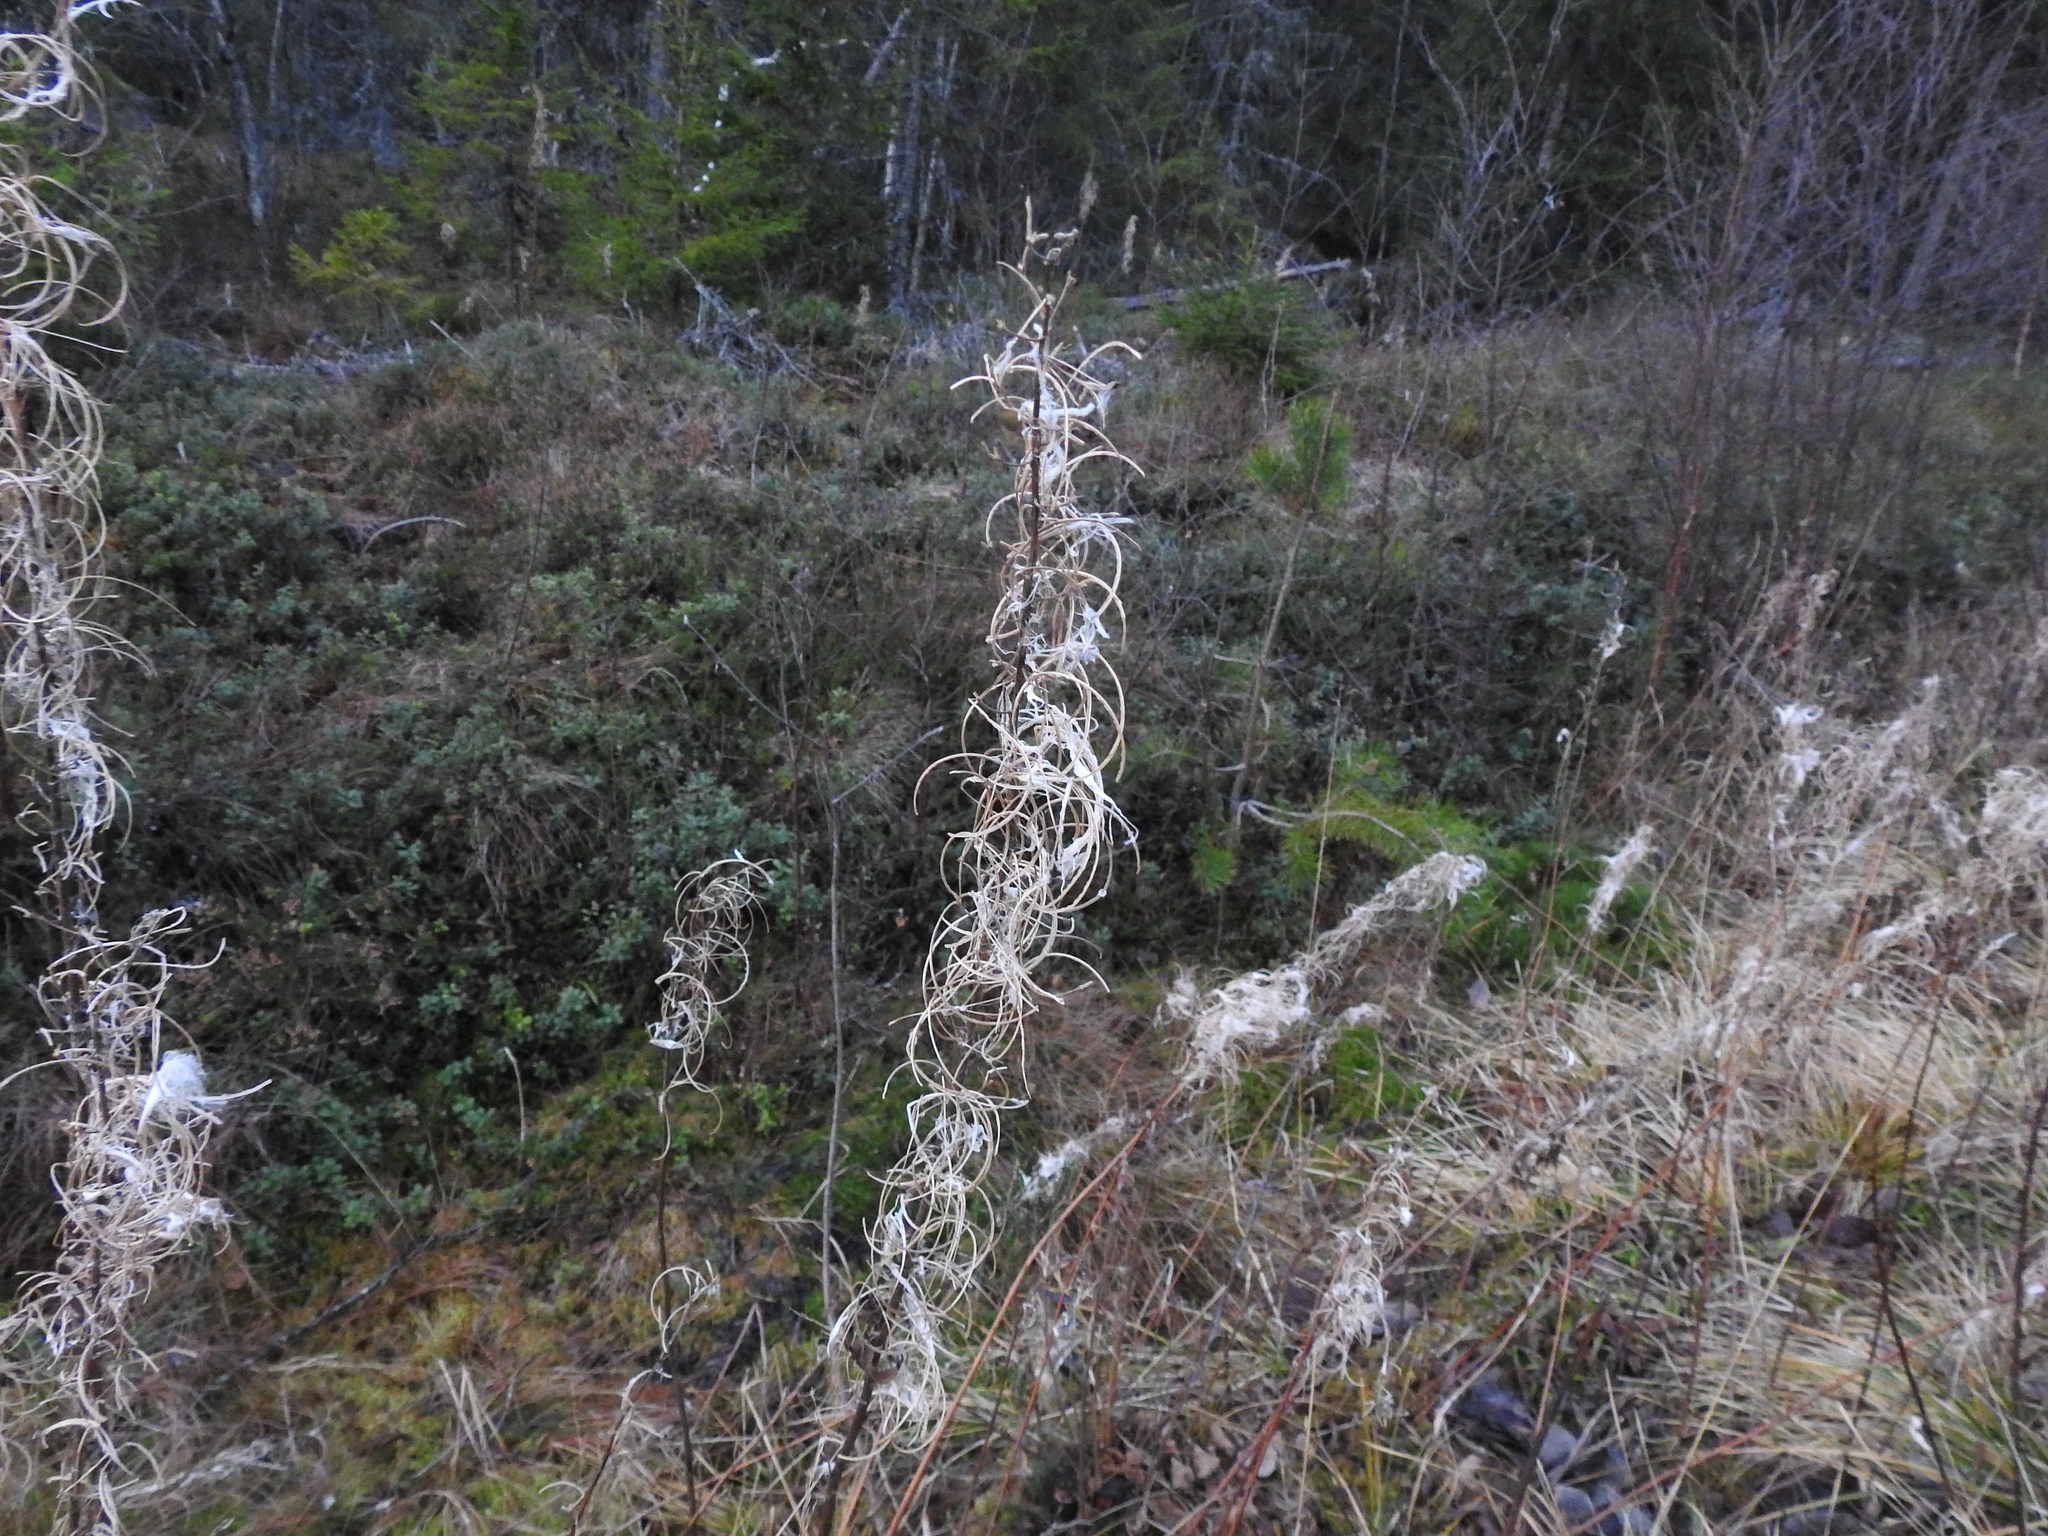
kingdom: Plantae
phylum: Tracheophyta
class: Magnoliopsida
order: Myrtales
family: Onagraceae
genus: Chamaenerion
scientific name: Chamaenerion angustifolium
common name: Fireweed
